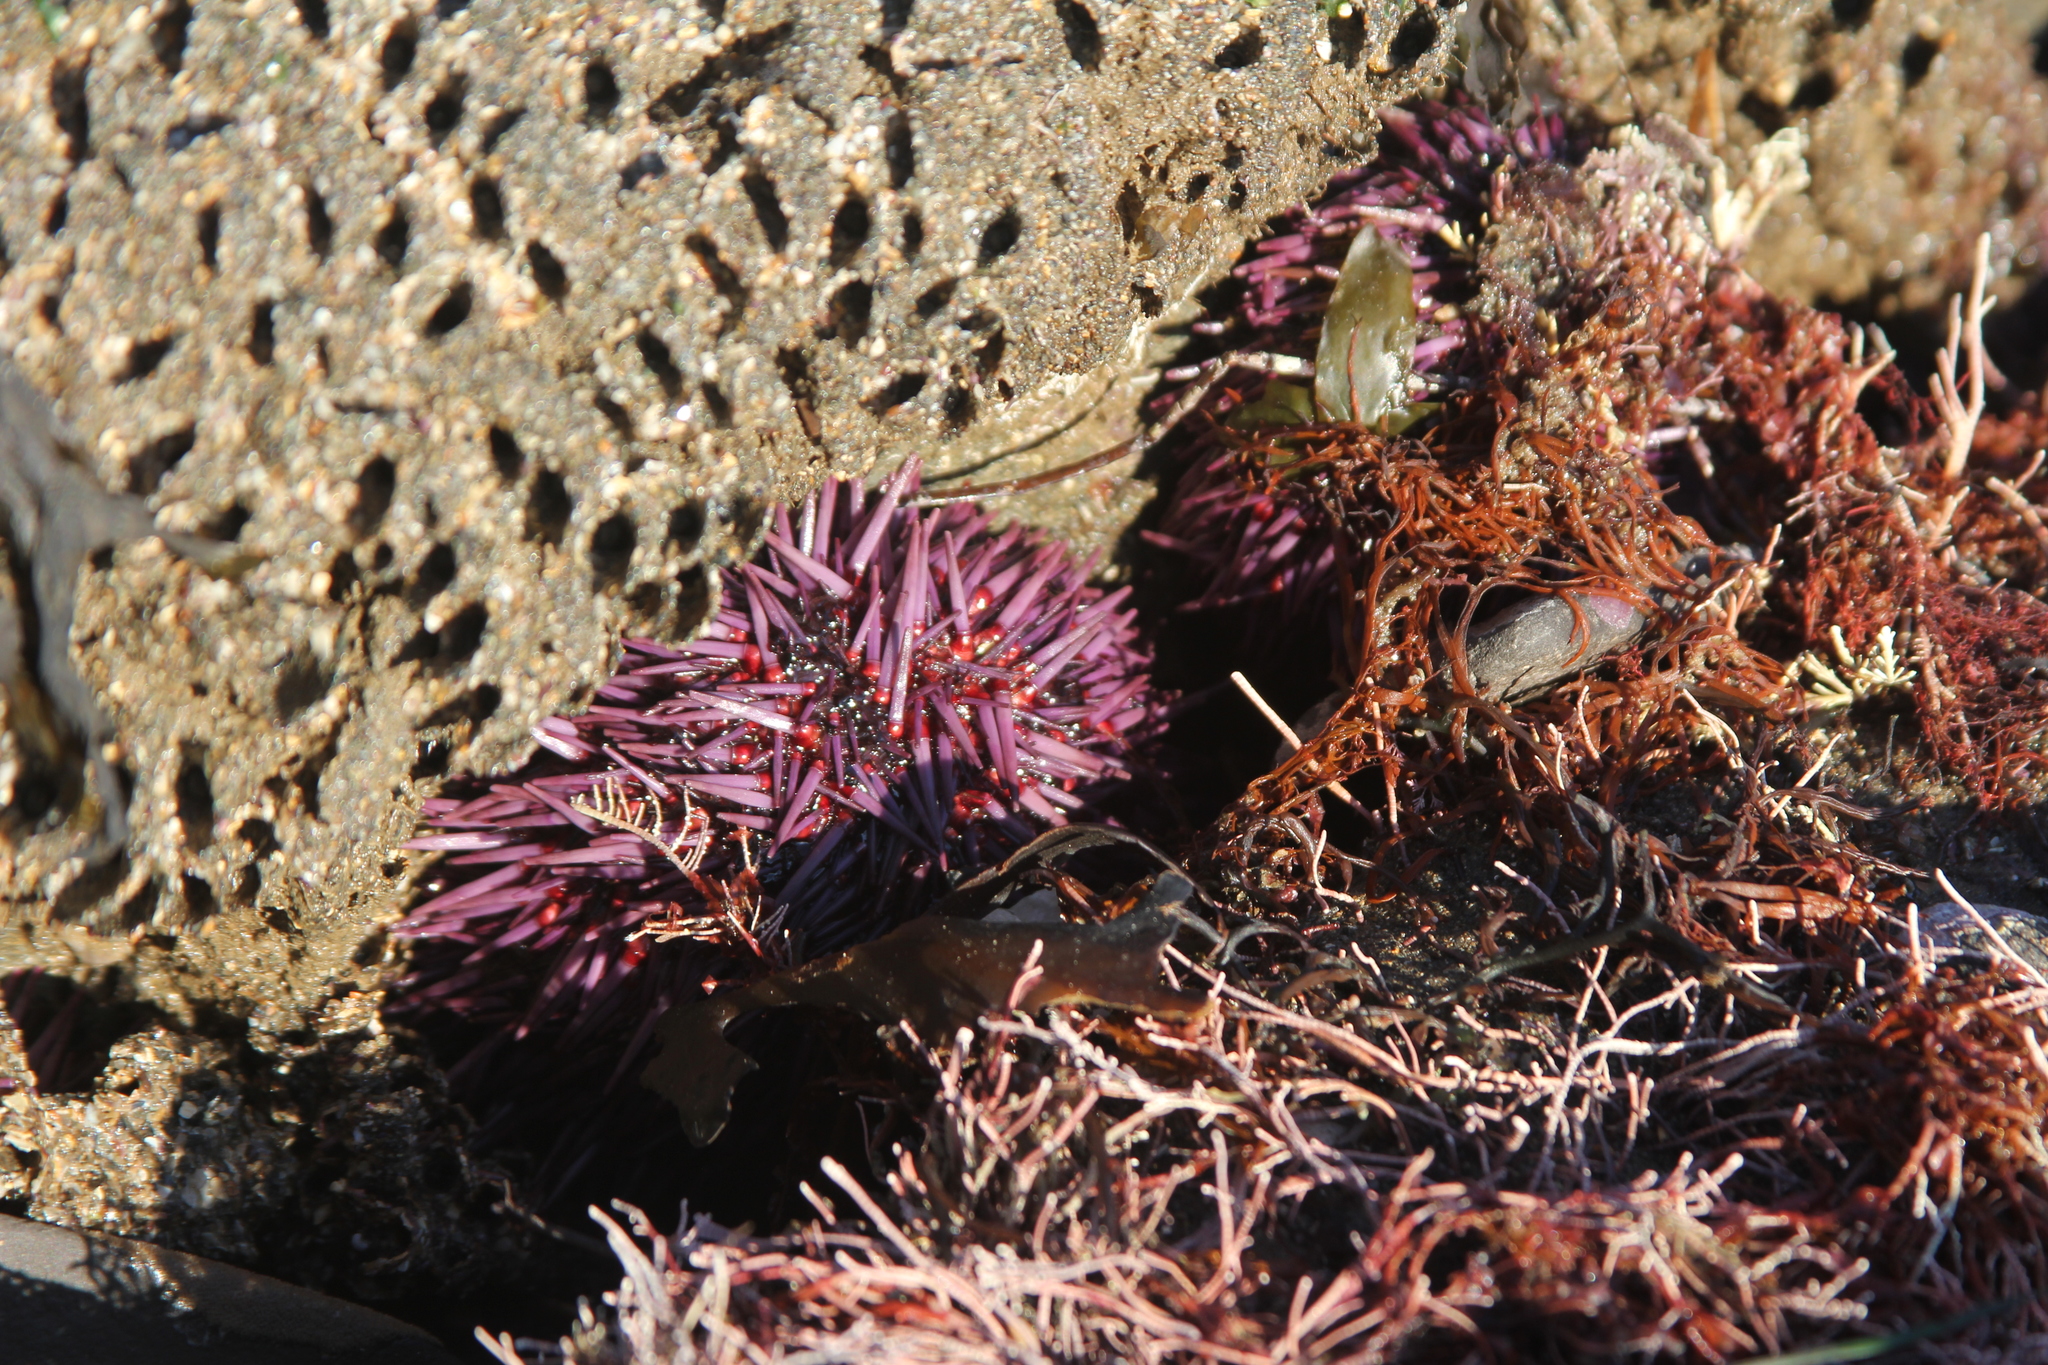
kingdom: Animalia
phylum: Echinodermata
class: Echinoidea
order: Camarodonta
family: Strongylocentrotidae
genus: Strongylocentrotus
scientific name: Strongylocentrotus purpuratus
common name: Purple sea urchin
